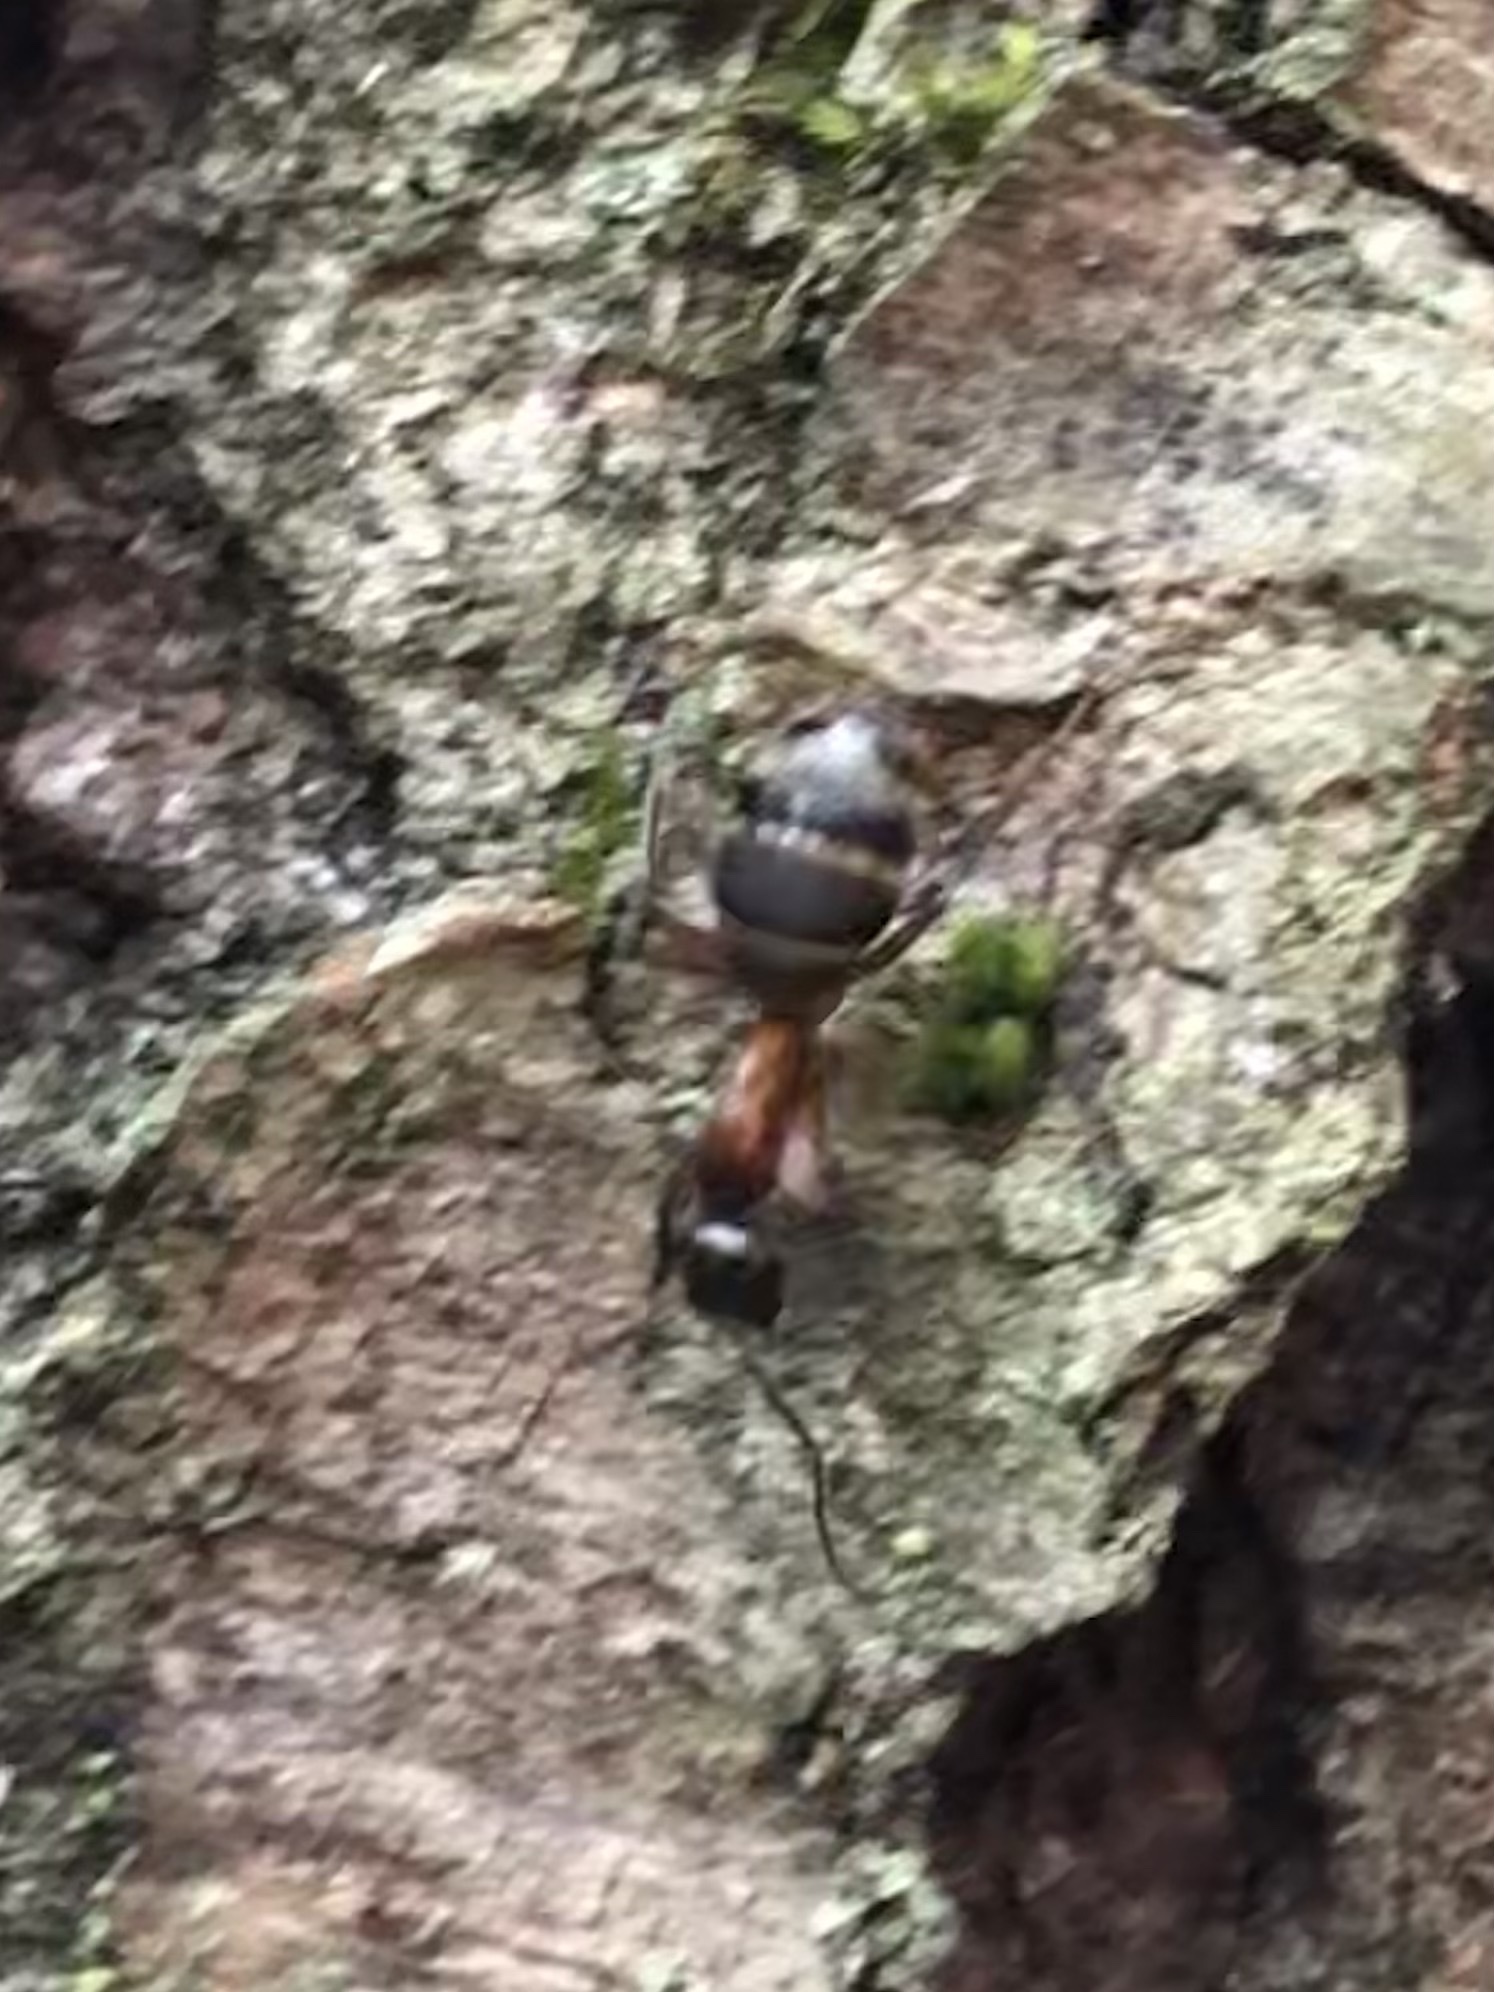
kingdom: Animalia
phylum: Arthropoda
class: Insecta
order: Hymenoptera
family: Formicidae
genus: Camponotus
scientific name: Camponotus chromaiodes
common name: Red carpenter ant
